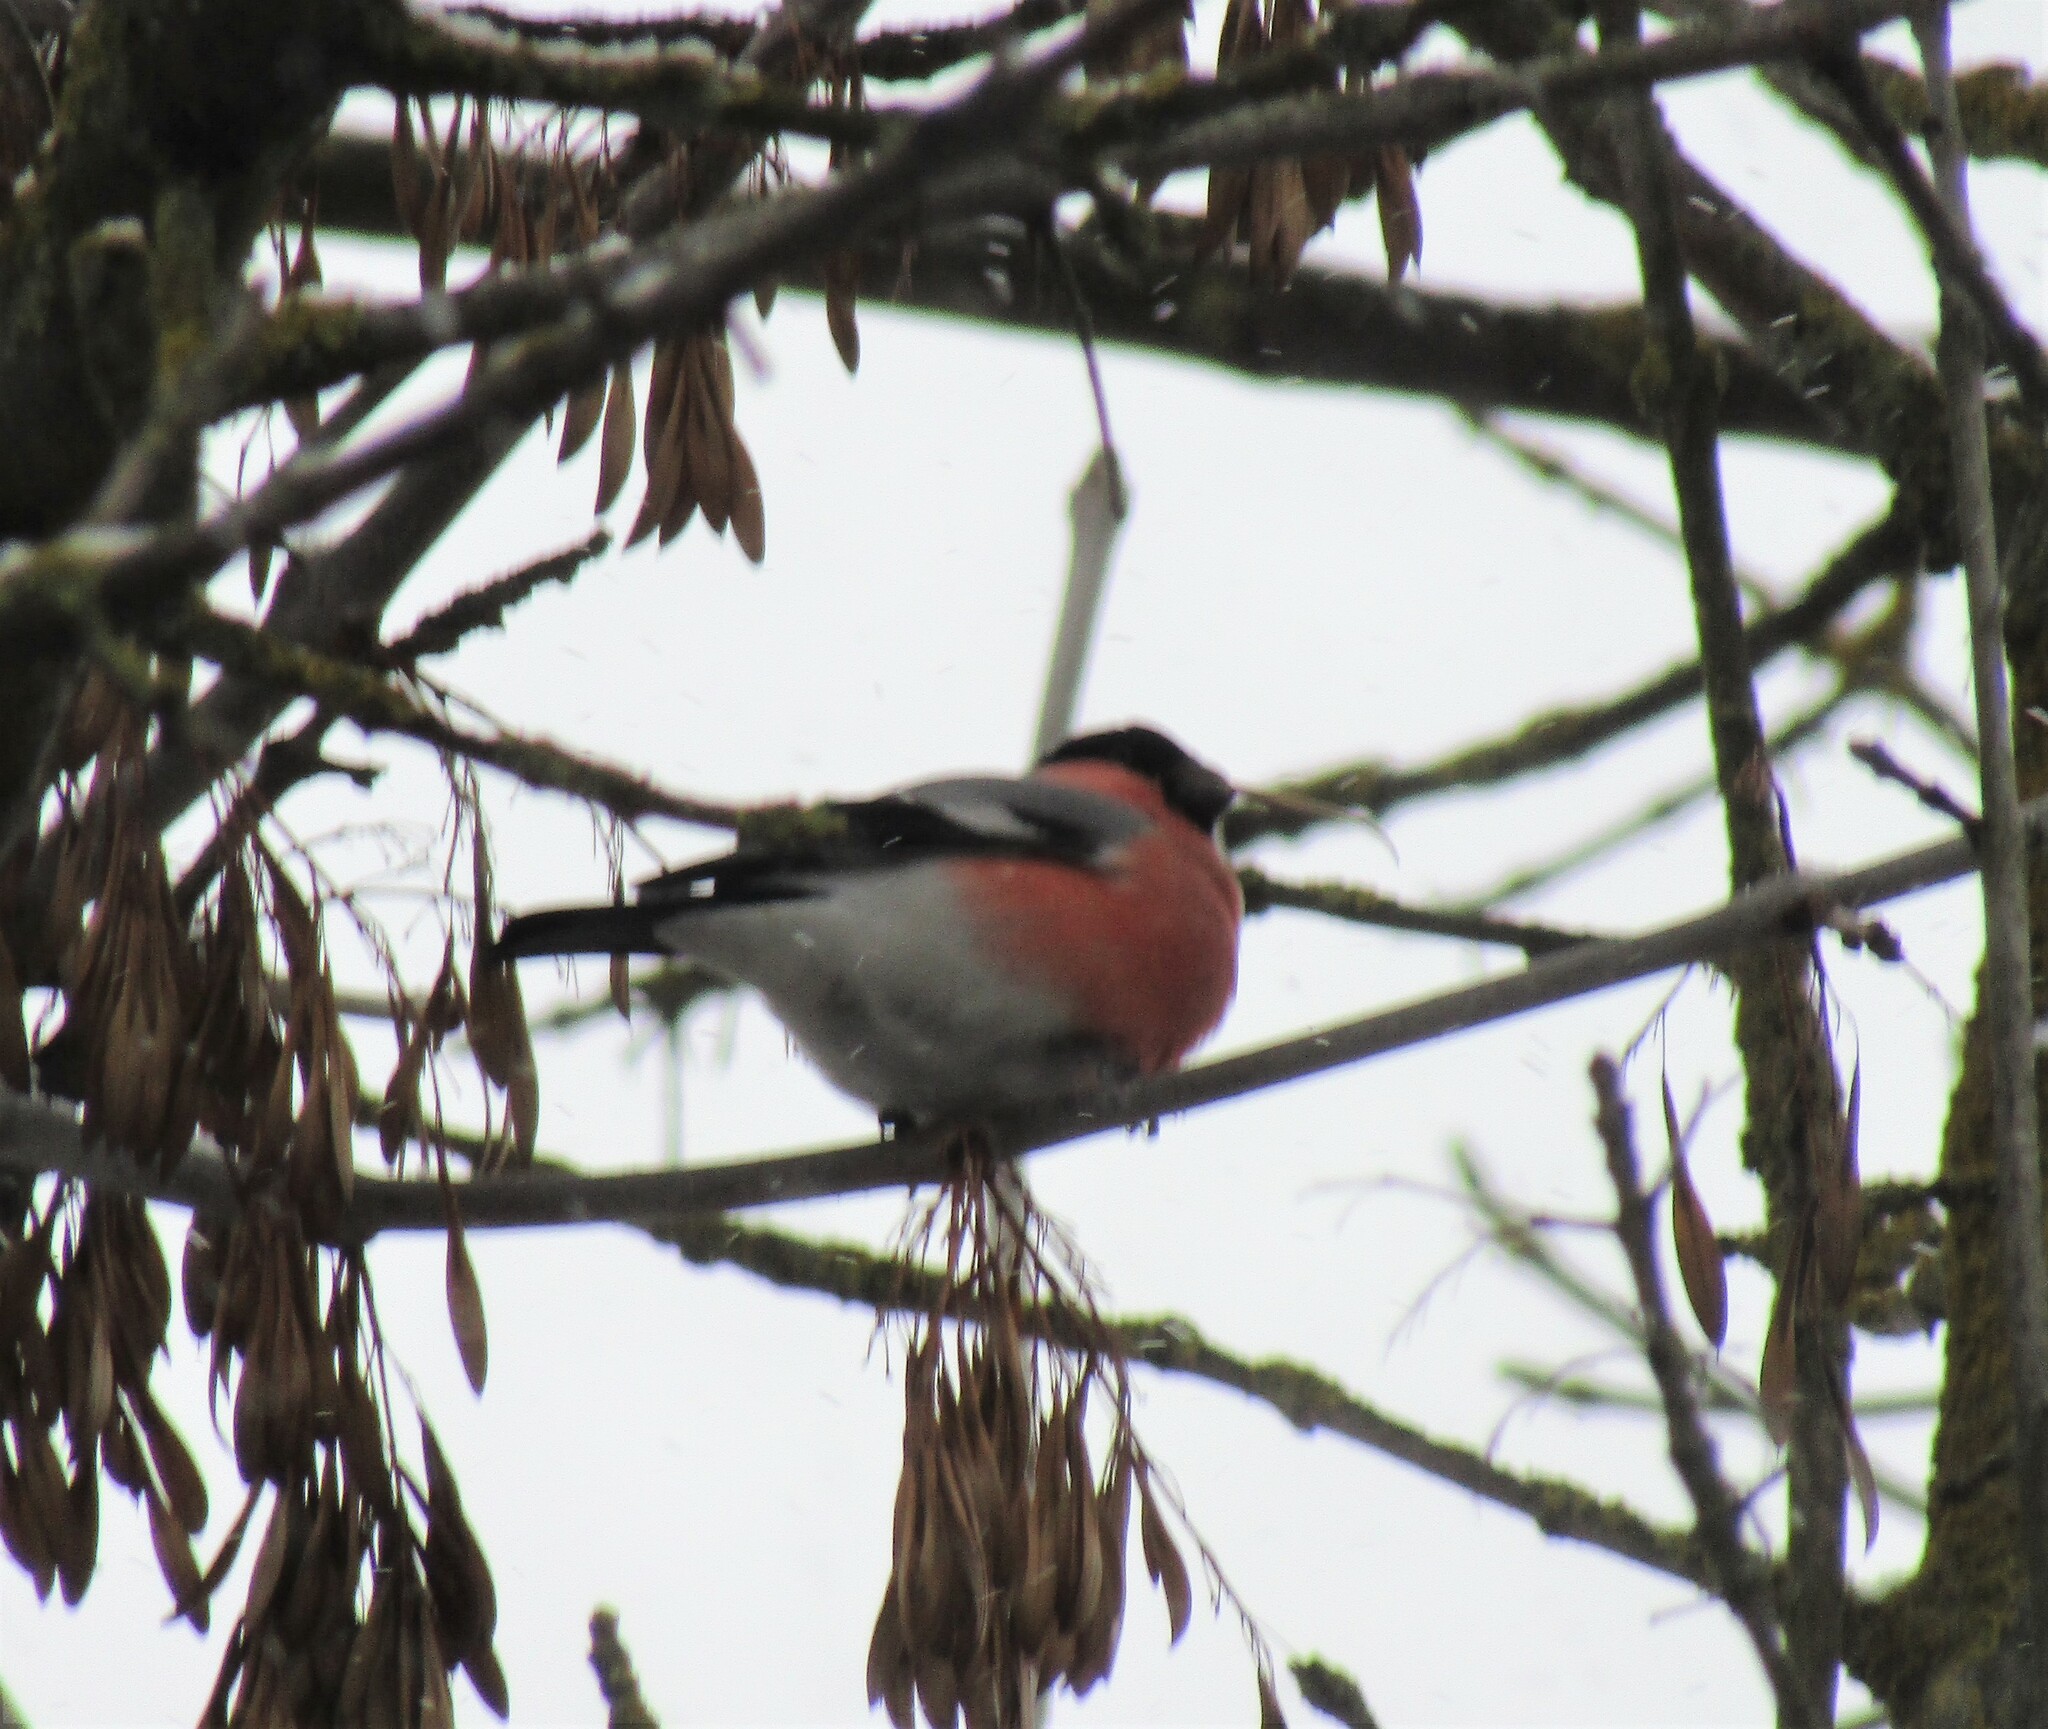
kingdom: Animalia
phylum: Chordata
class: Aves
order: Passeriformes
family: Fringillidae
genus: Pyrrhula
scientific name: Pyrrhula pyrrhula
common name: Eurasian bullfinch
